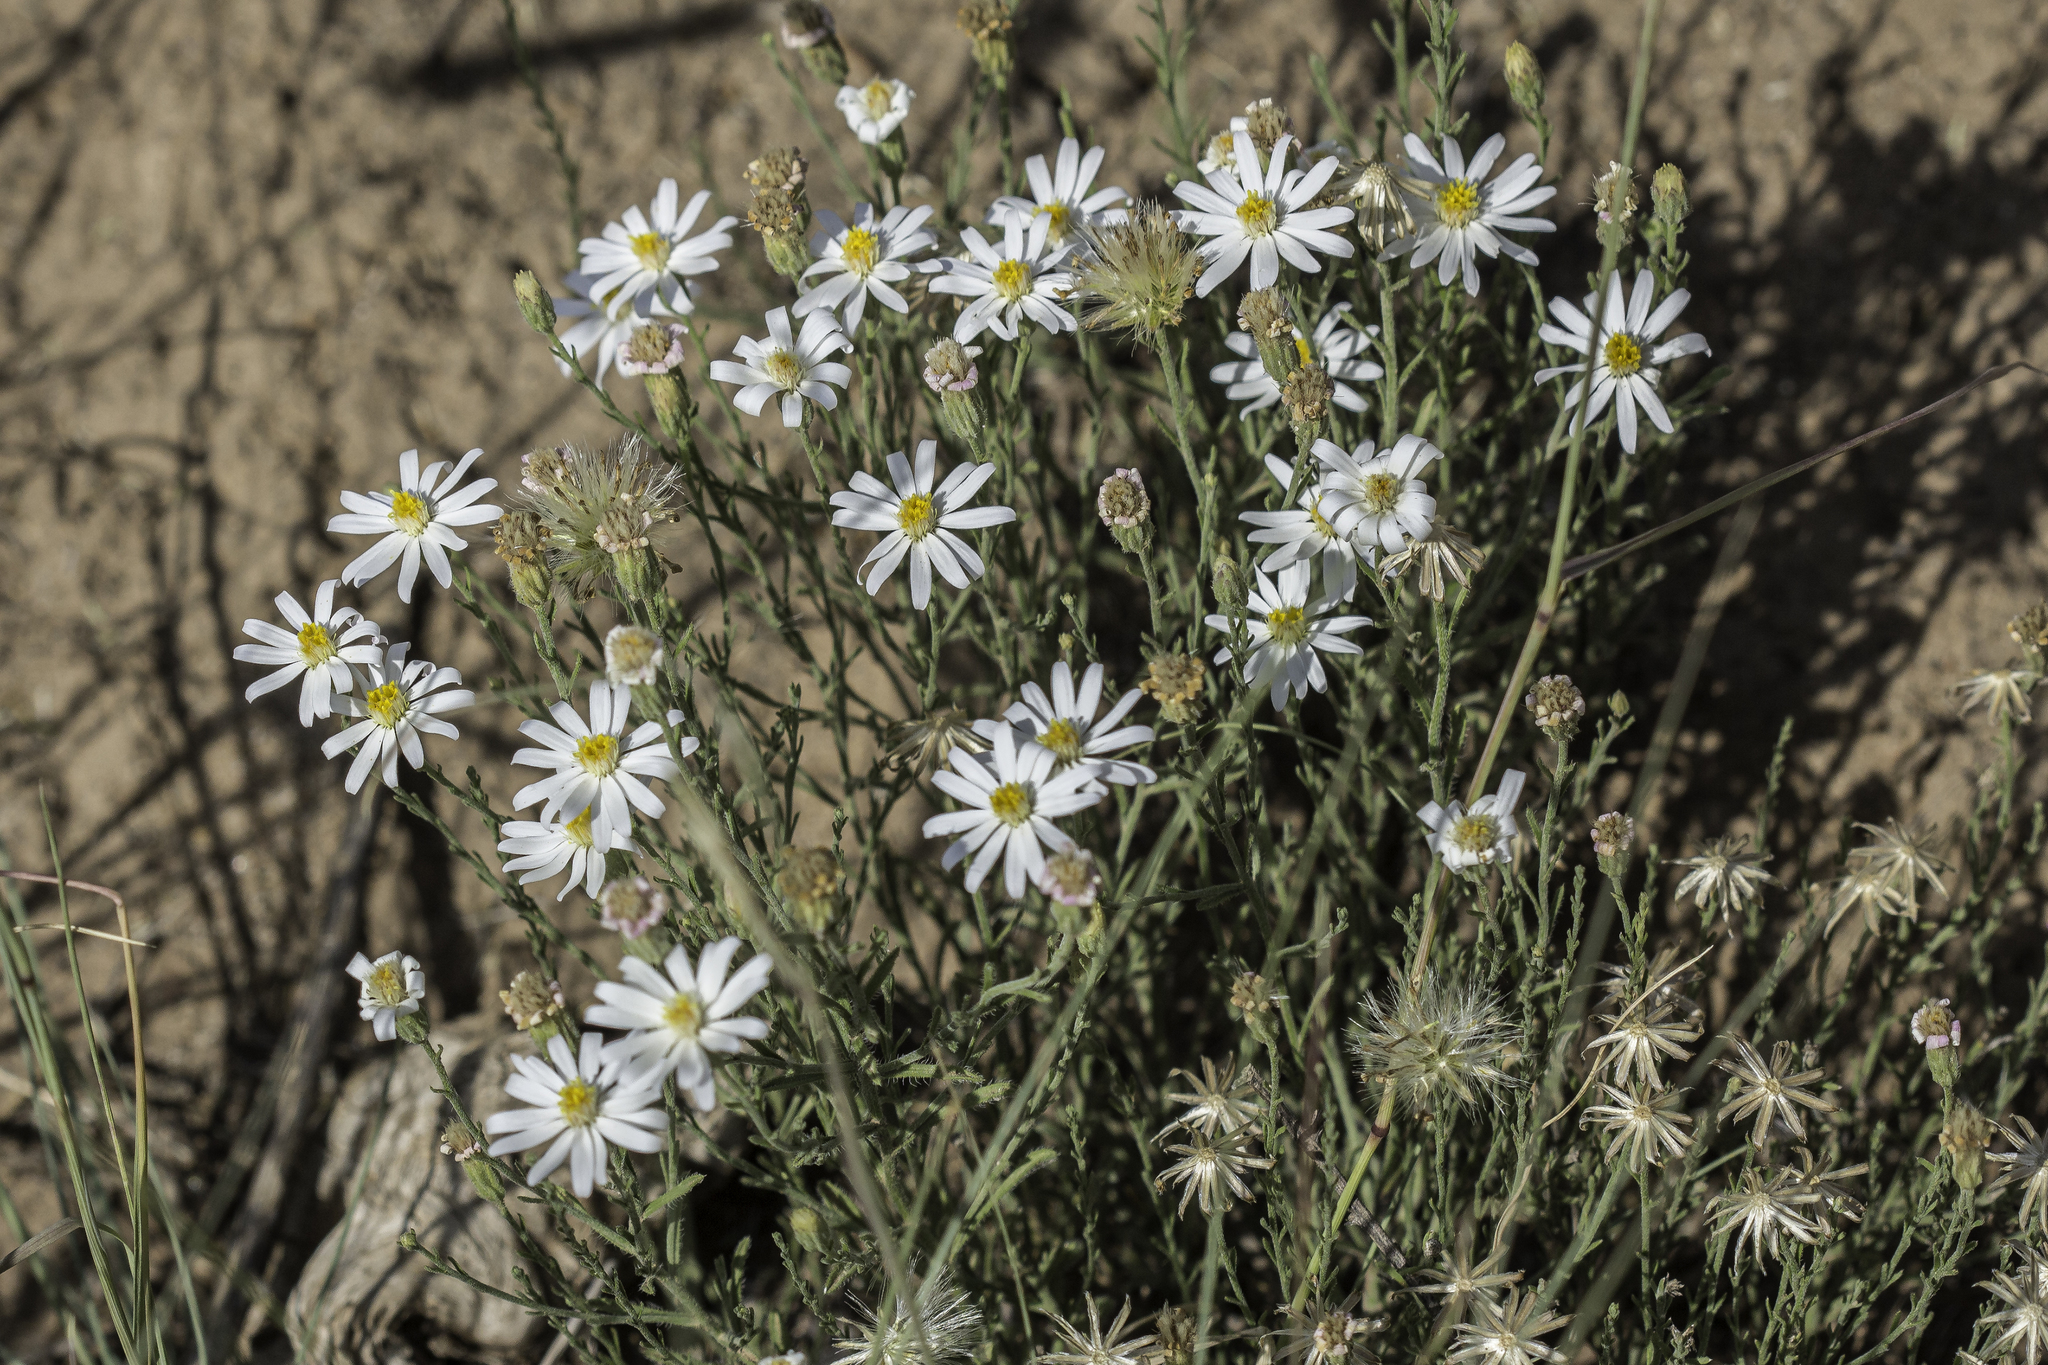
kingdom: Plantae
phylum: Tracheophyta
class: Magnoliopsida
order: Asterales
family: Asteraceae
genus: Chaetopappa
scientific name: Chaetopappa ericoides
